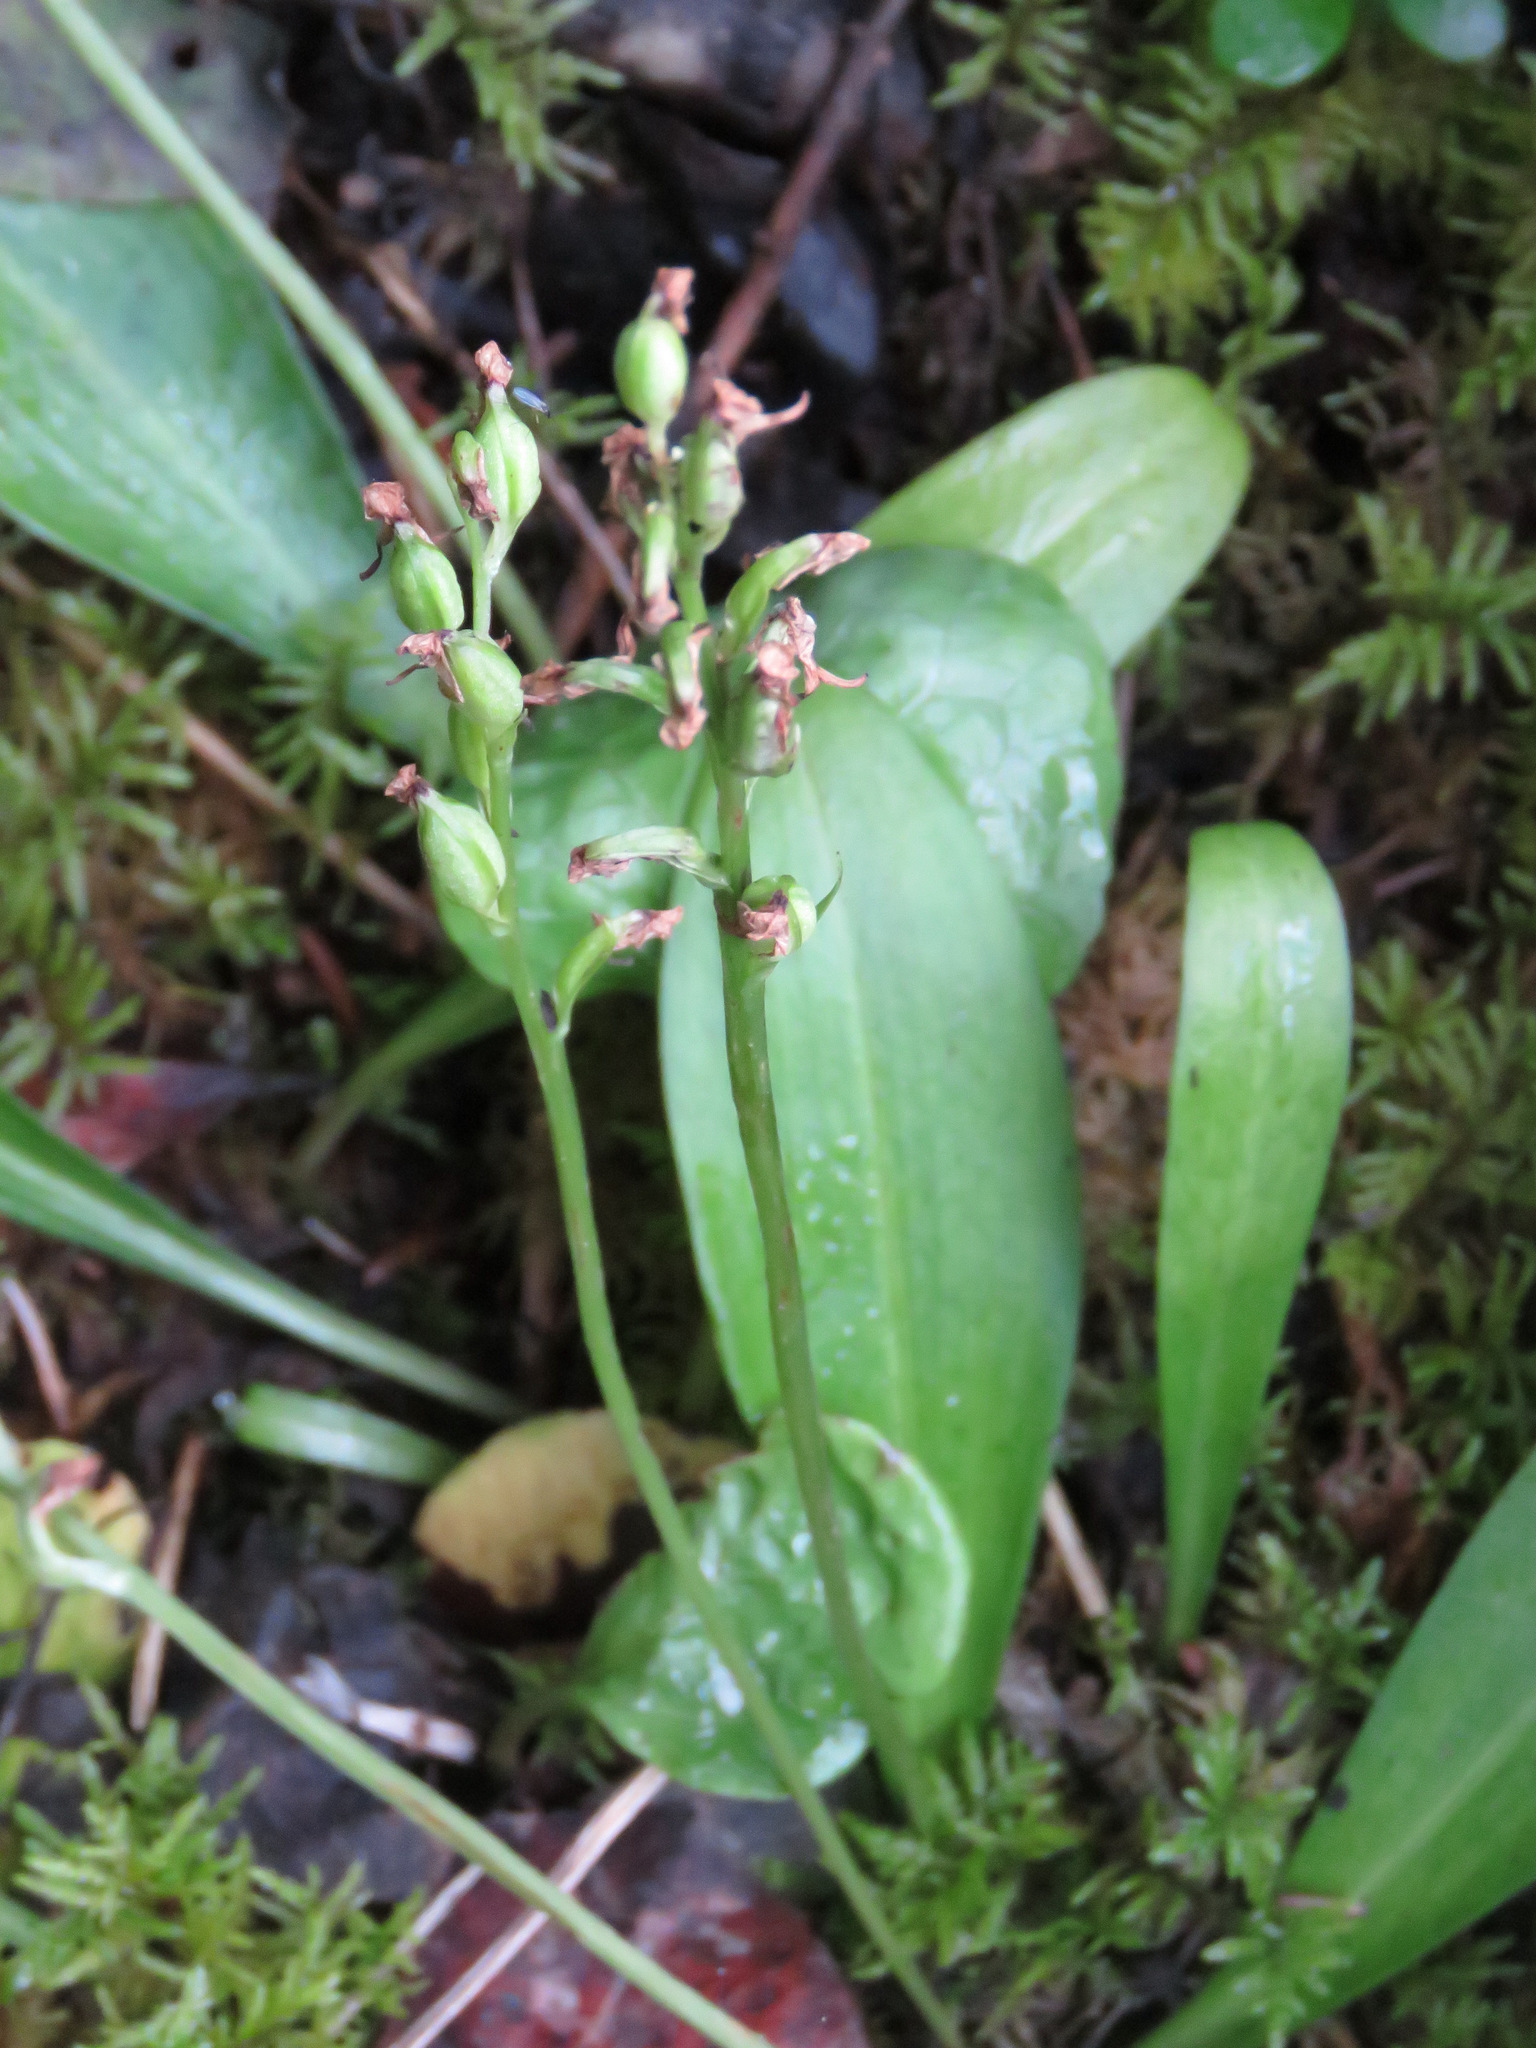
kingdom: Plantae
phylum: Tracheophyta
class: Liliopsida
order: Asparagales
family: Orchidaceae
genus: Platanthera
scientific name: Platanthera obtusata
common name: Blunt bog orchid
